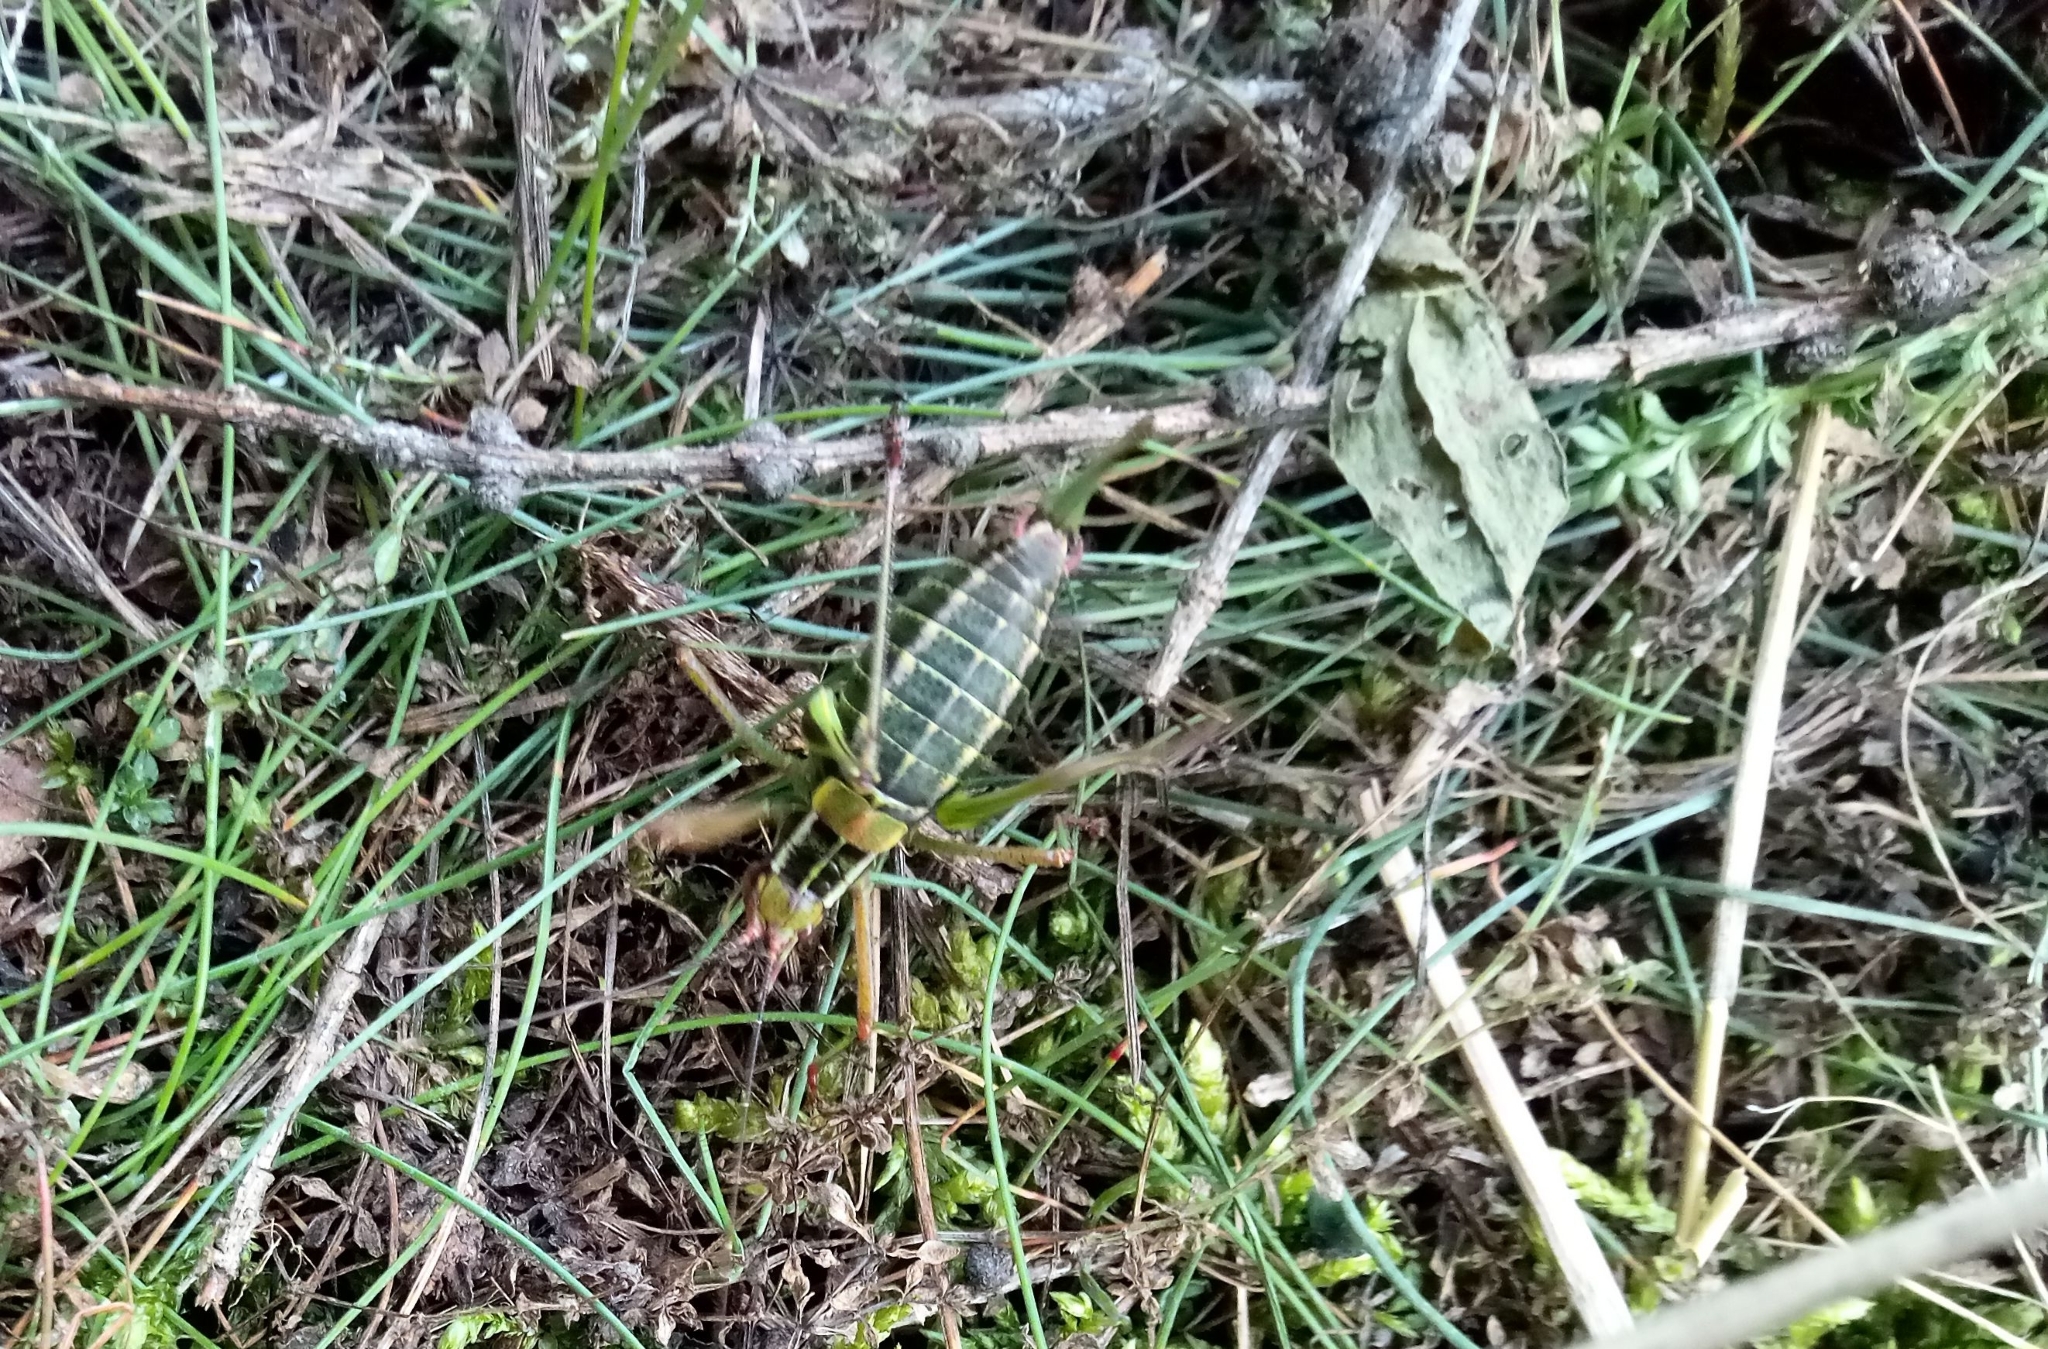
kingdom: Animalia
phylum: Arthropoda
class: Insecta
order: Orthoptera
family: Tettigoniidae
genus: Barbitistes
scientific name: Barbitistes constrictus
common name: Eastern saw-tailed bush cricket
